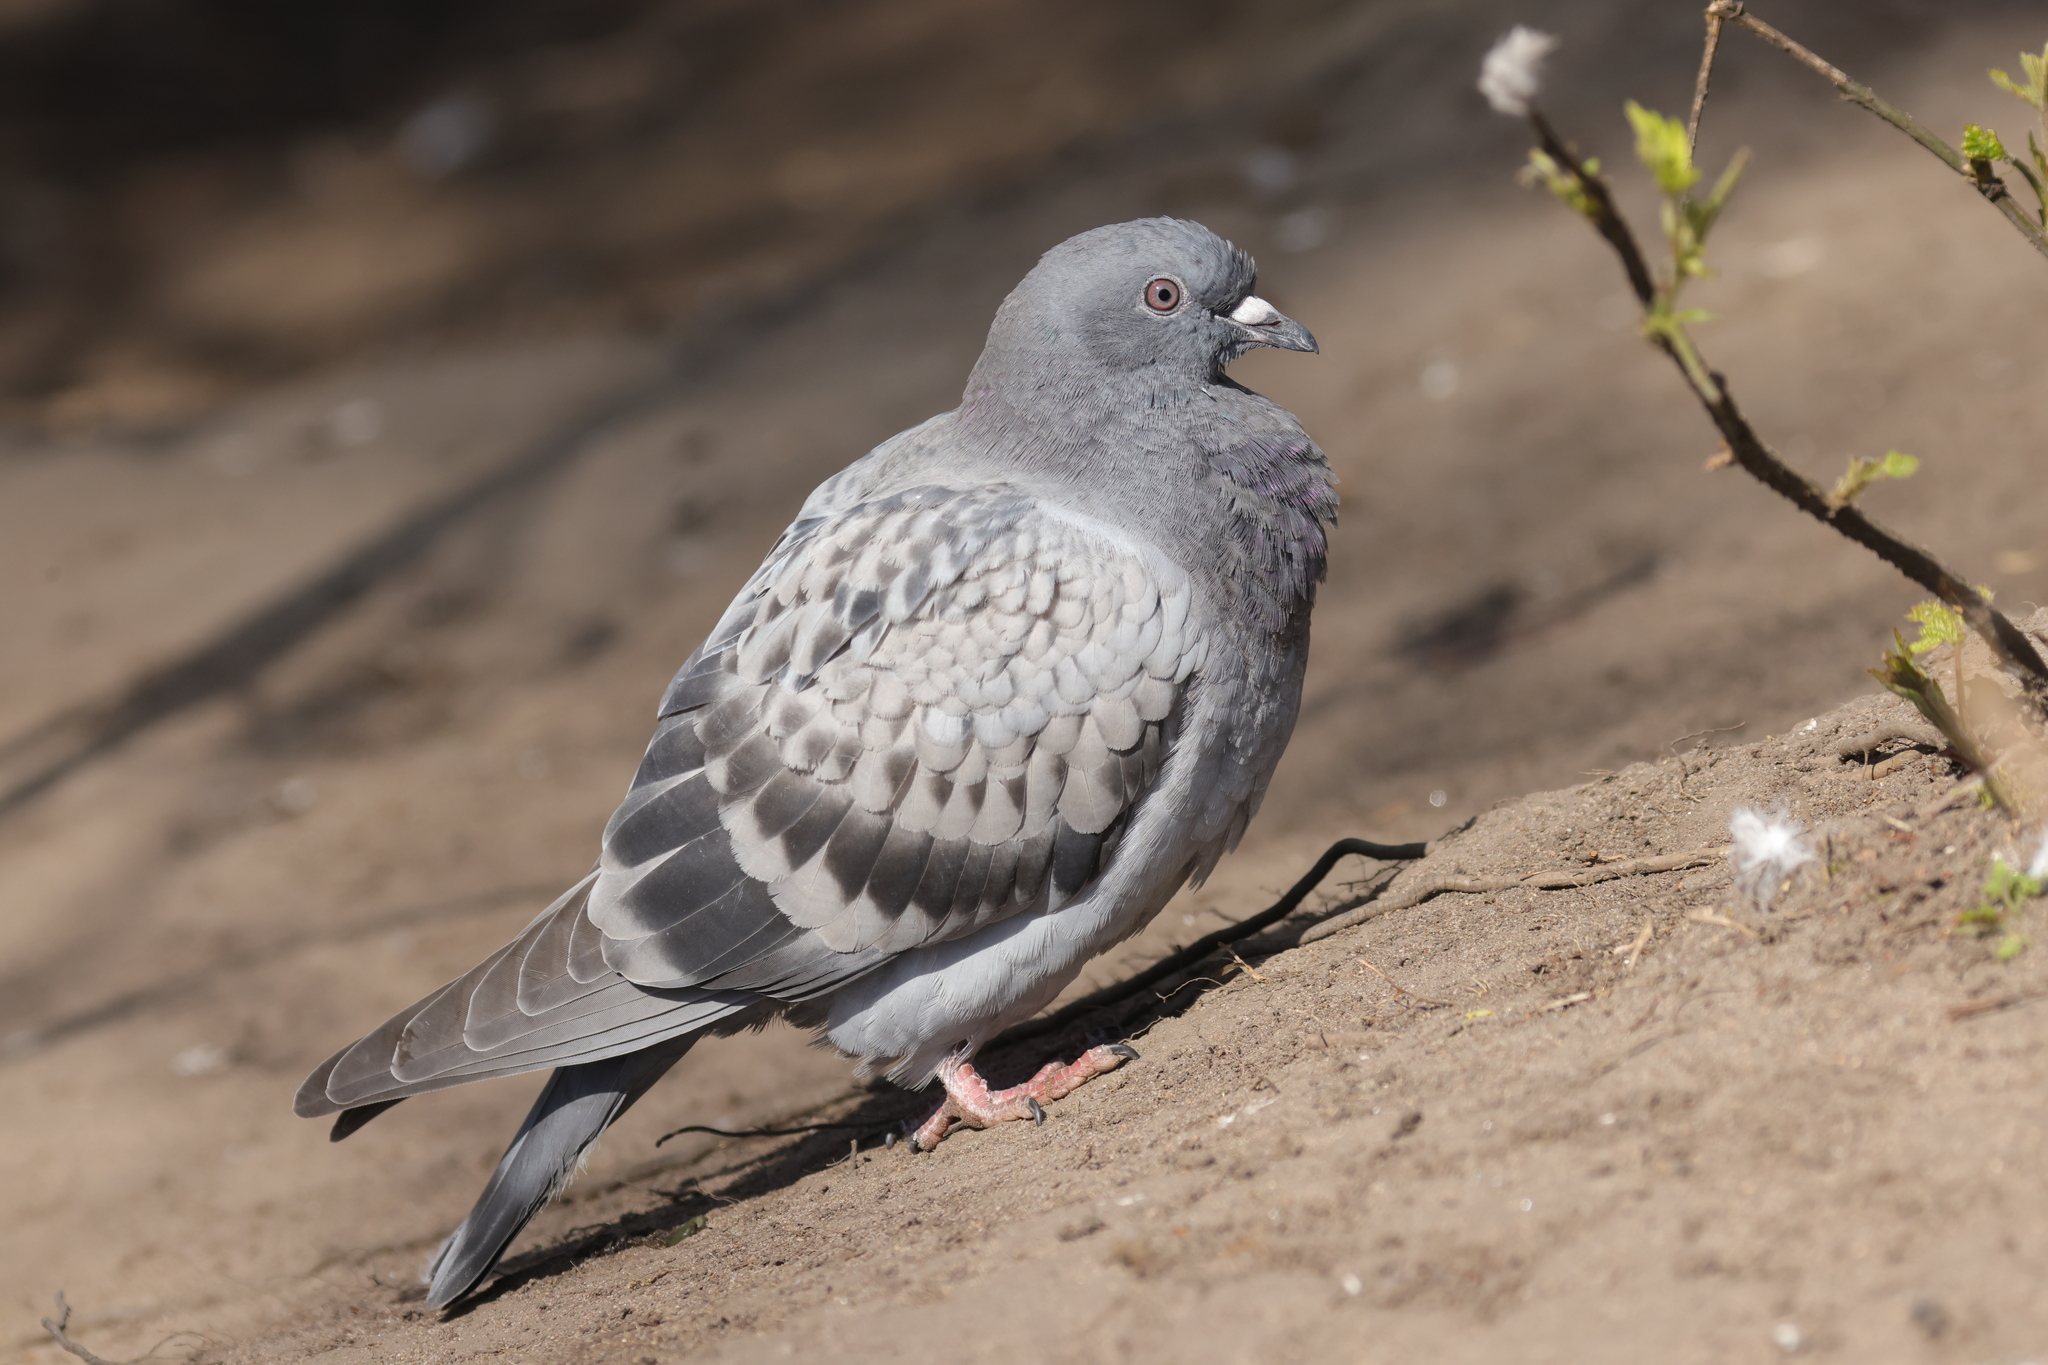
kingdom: Animalia
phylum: Chordata
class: Aves
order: Columbiformes
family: Columbidae
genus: Columba
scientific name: Columba livia
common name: Rock pigeon
